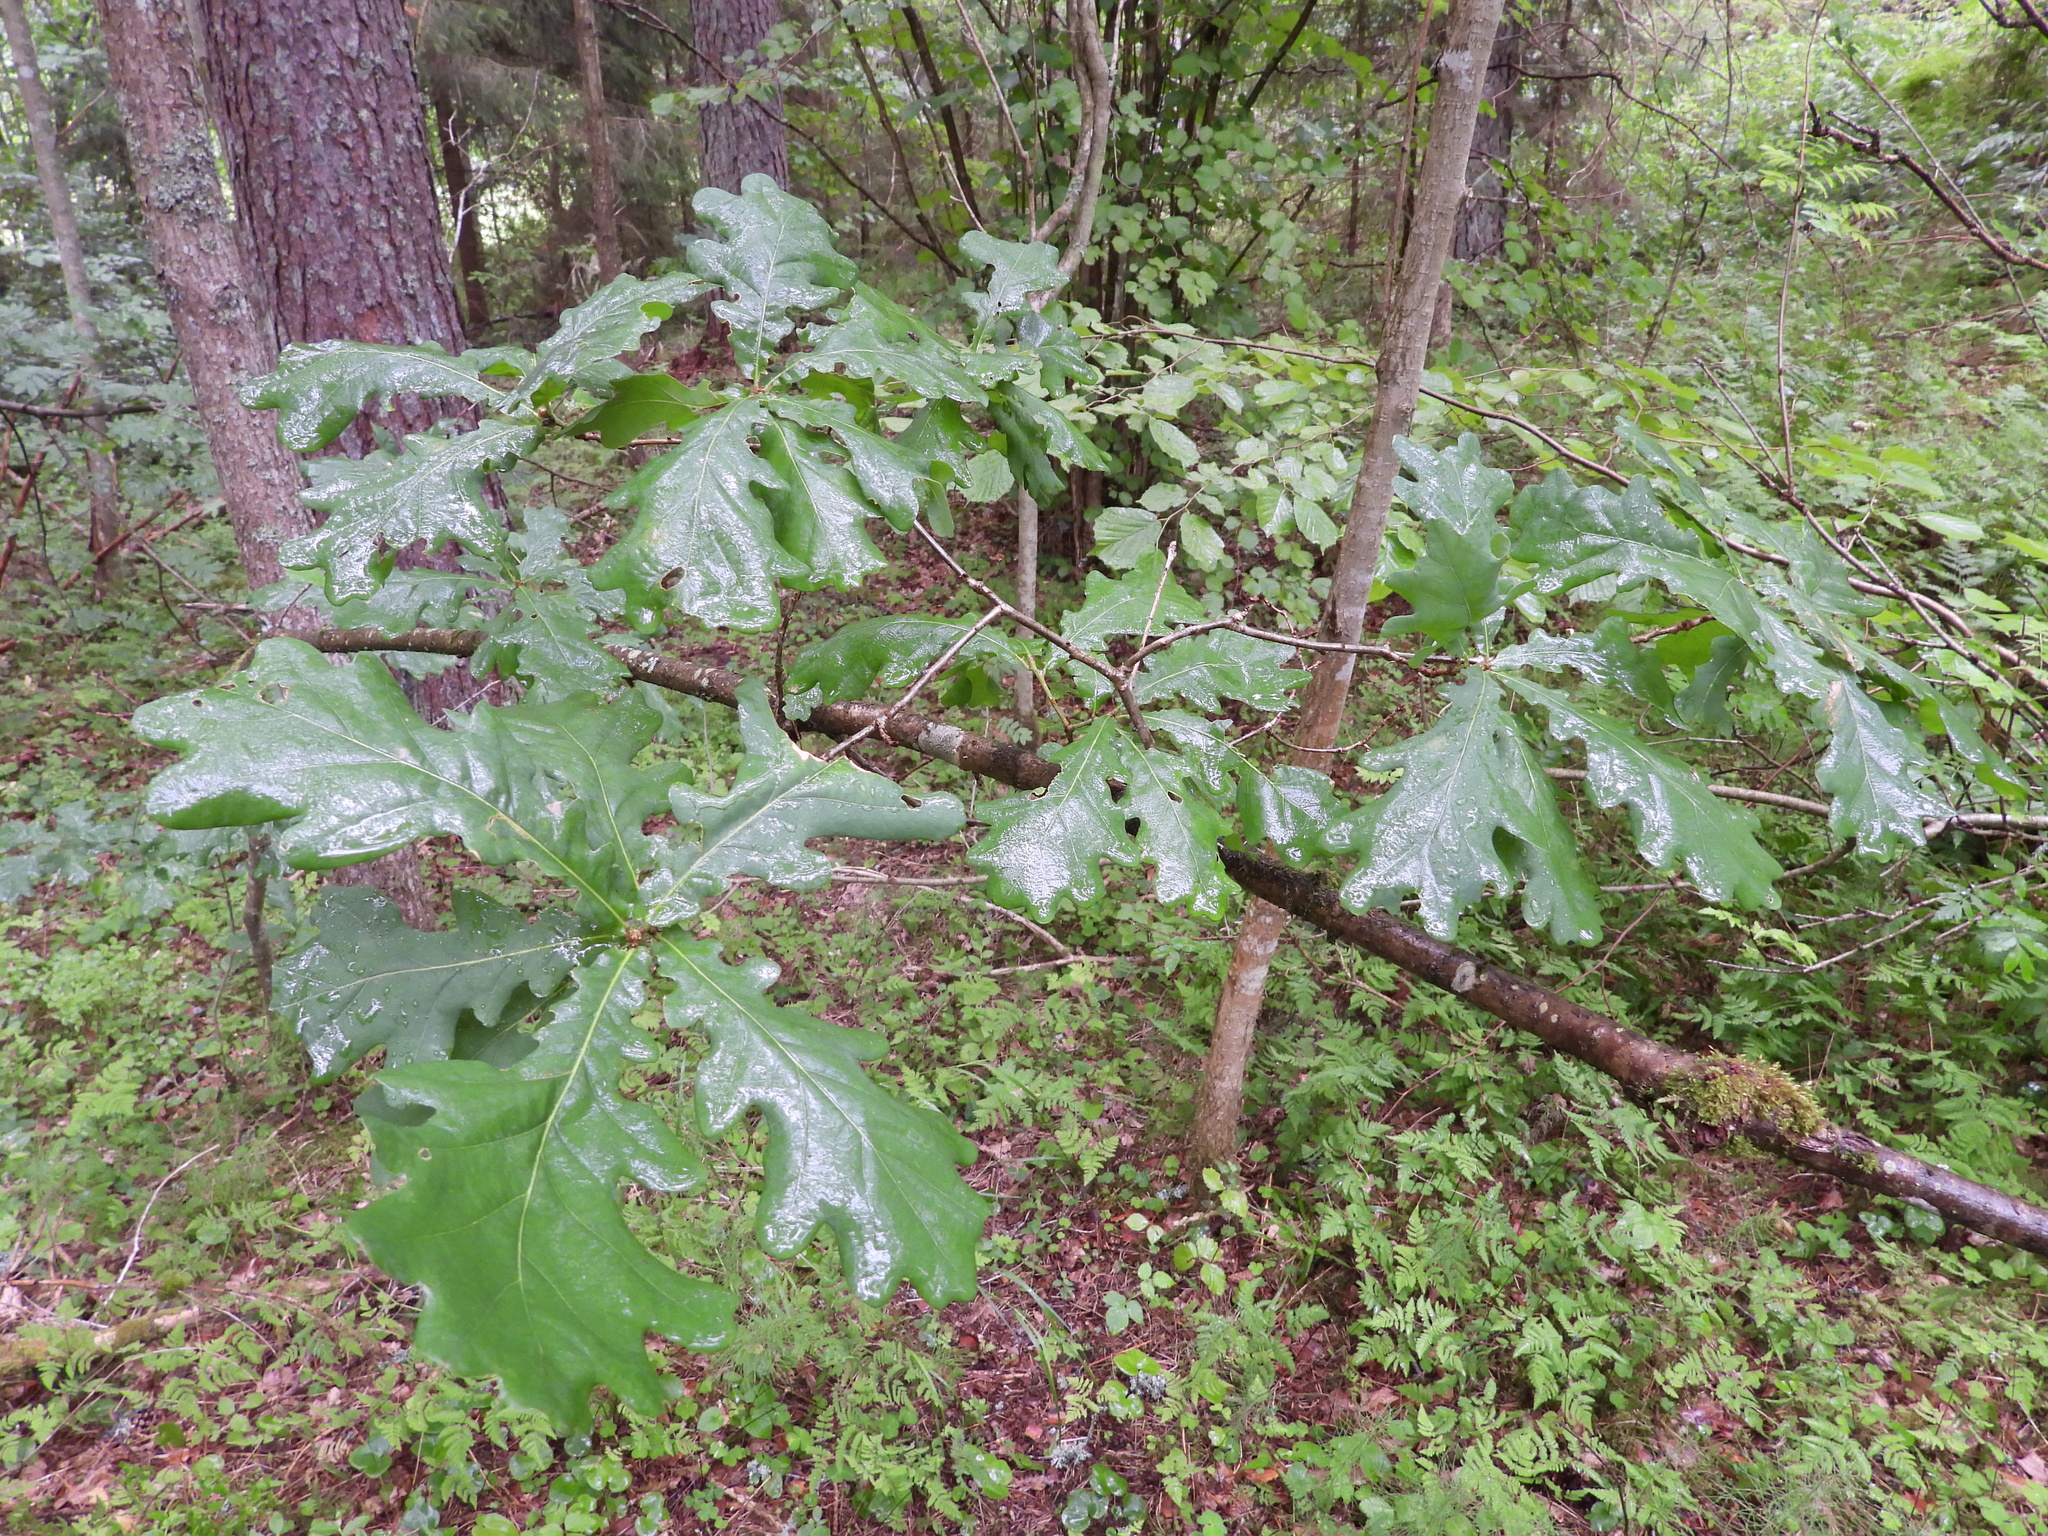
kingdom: Plantae
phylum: Tracheophyta
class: Magnoliopsida
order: Fagales
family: Fagaceae
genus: Quercus
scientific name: Quercus robur
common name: Pedunculate oak
